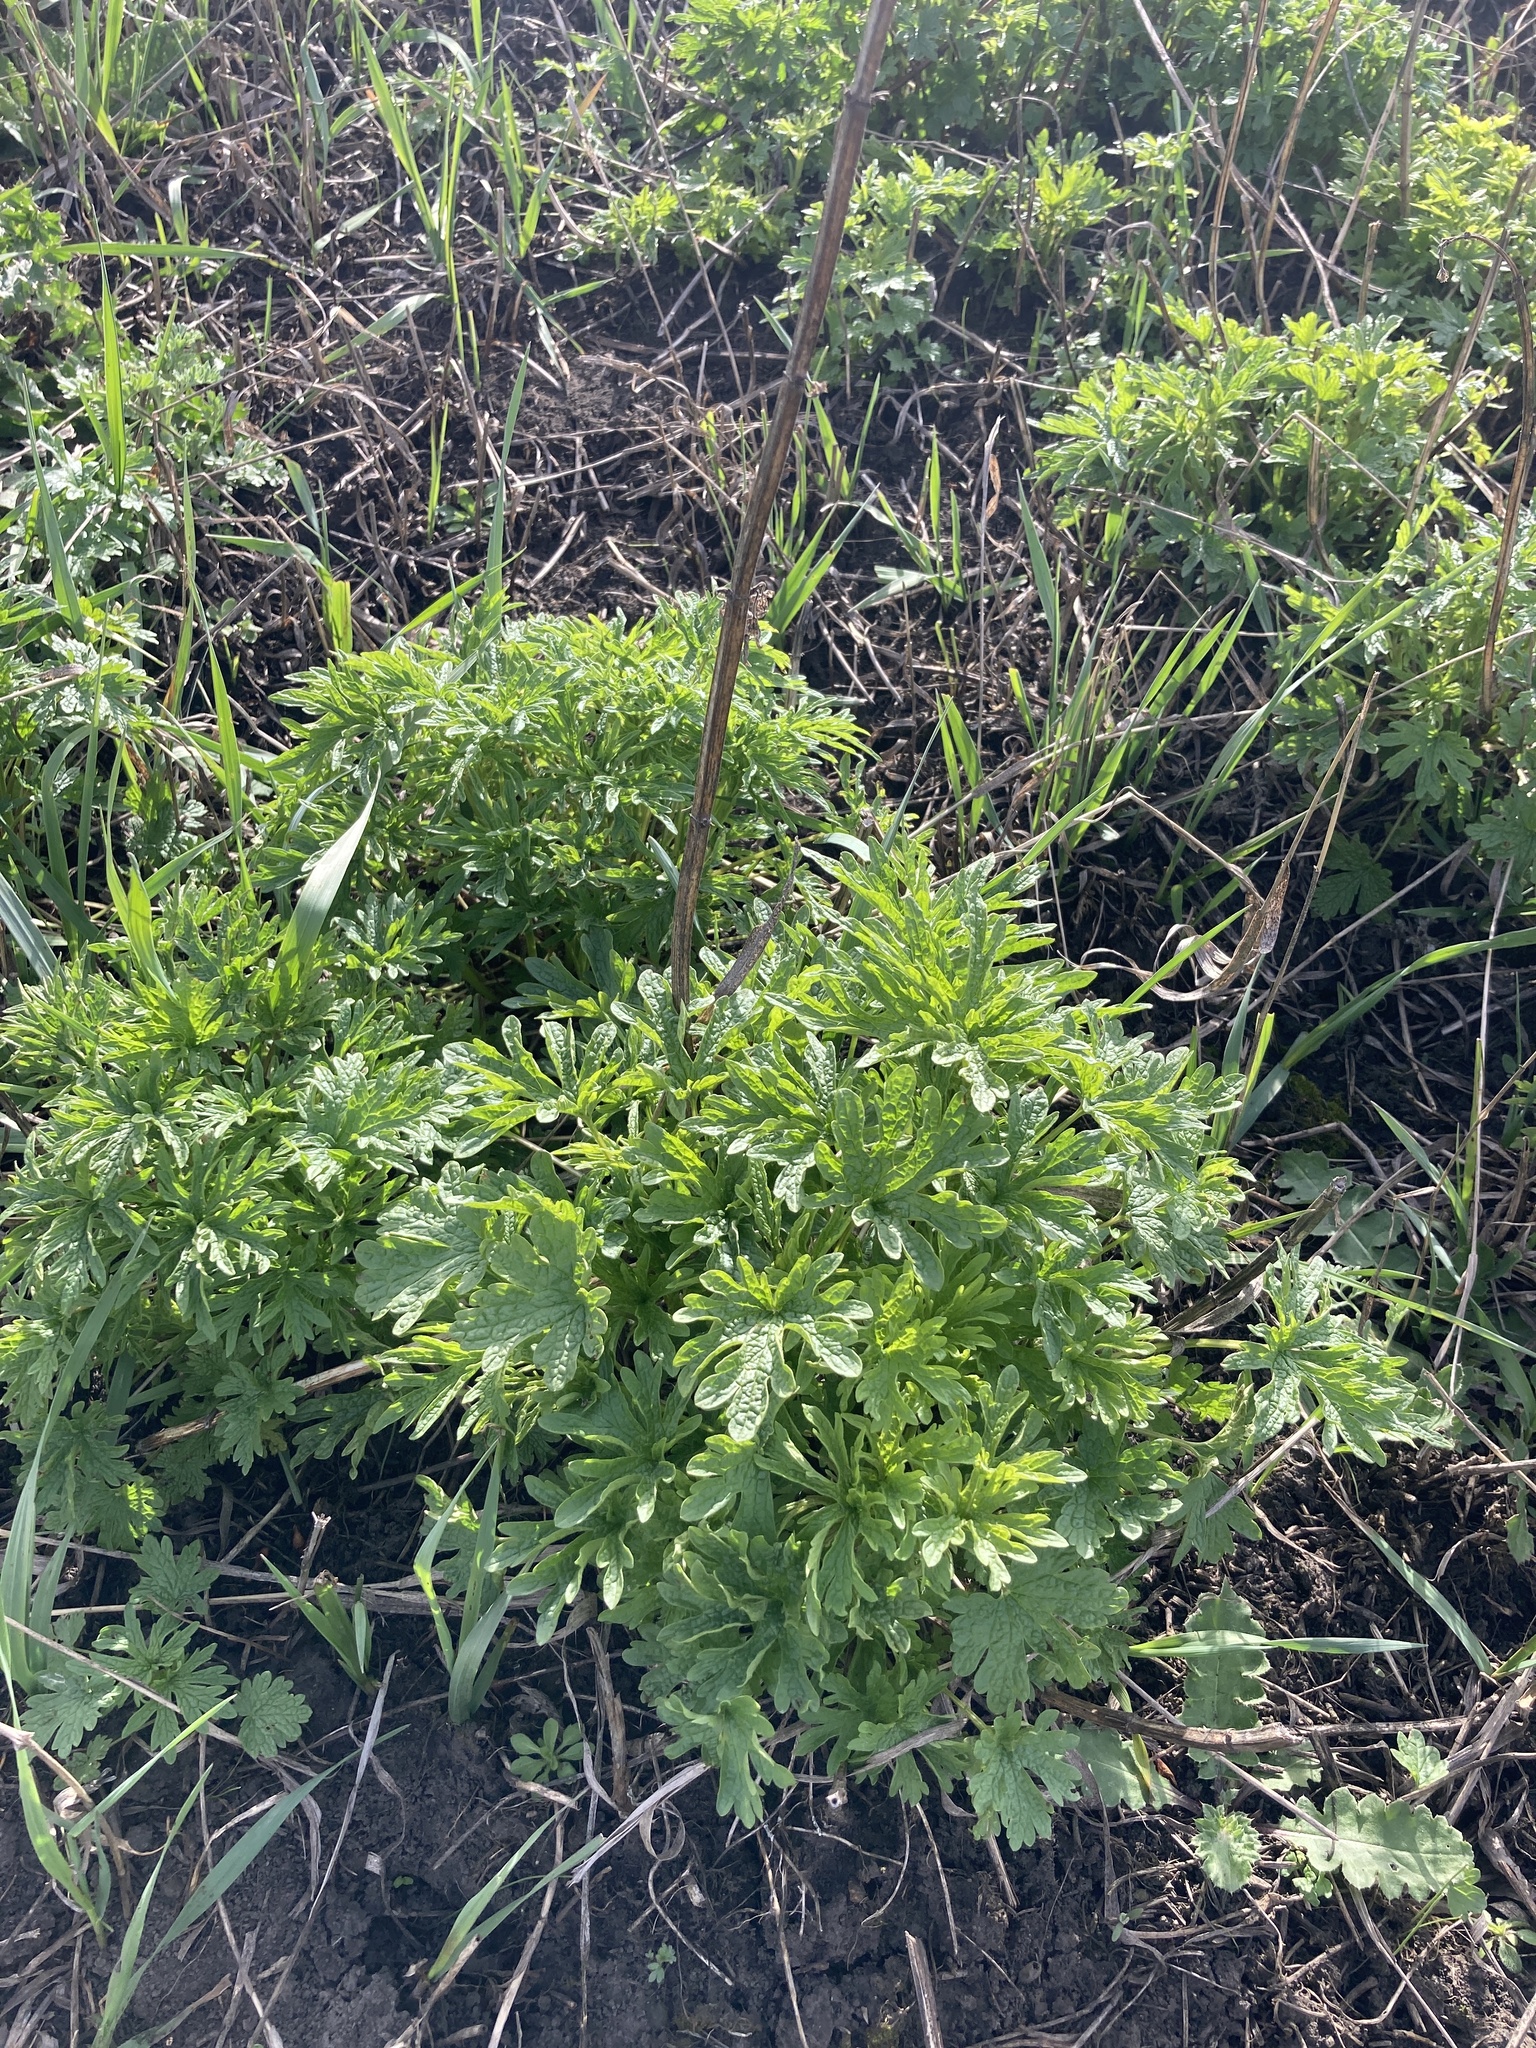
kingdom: Plantae
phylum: Tracheophyta
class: Magnoliopsida
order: Lamiales
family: Lamiaceae
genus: Leonurus
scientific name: Leonurus glaucescens
